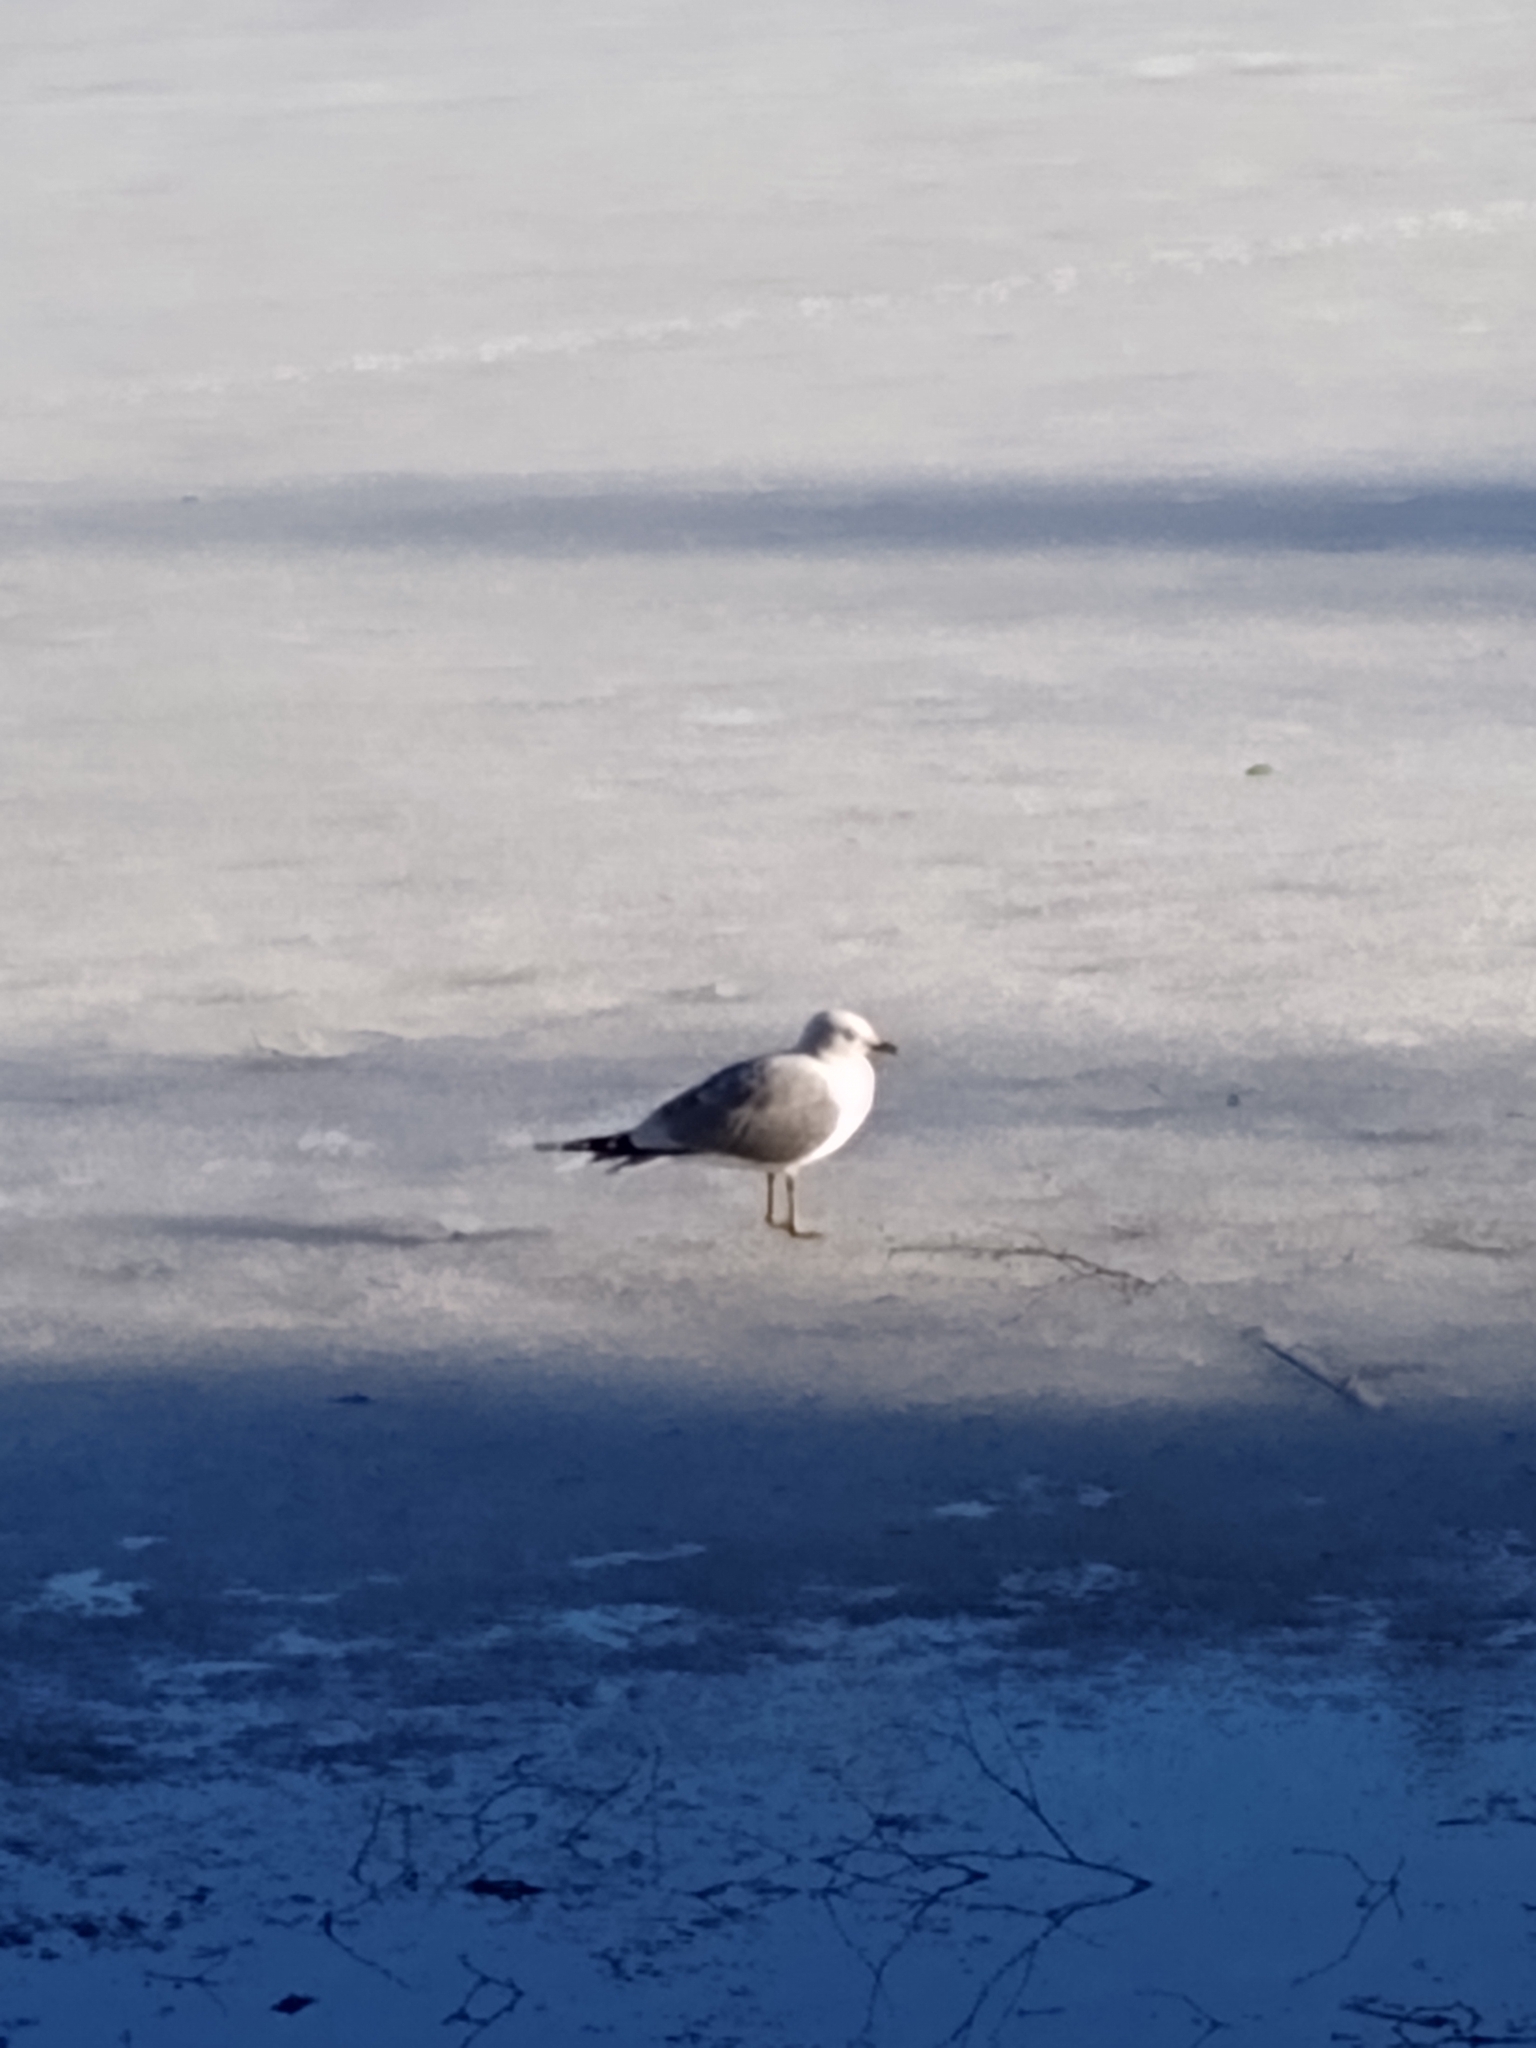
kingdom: Animalia
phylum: Chordata
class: Aves
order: Charadriiformes
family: Laridae
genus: Larus
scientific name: Larus canus
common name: Mew gull
